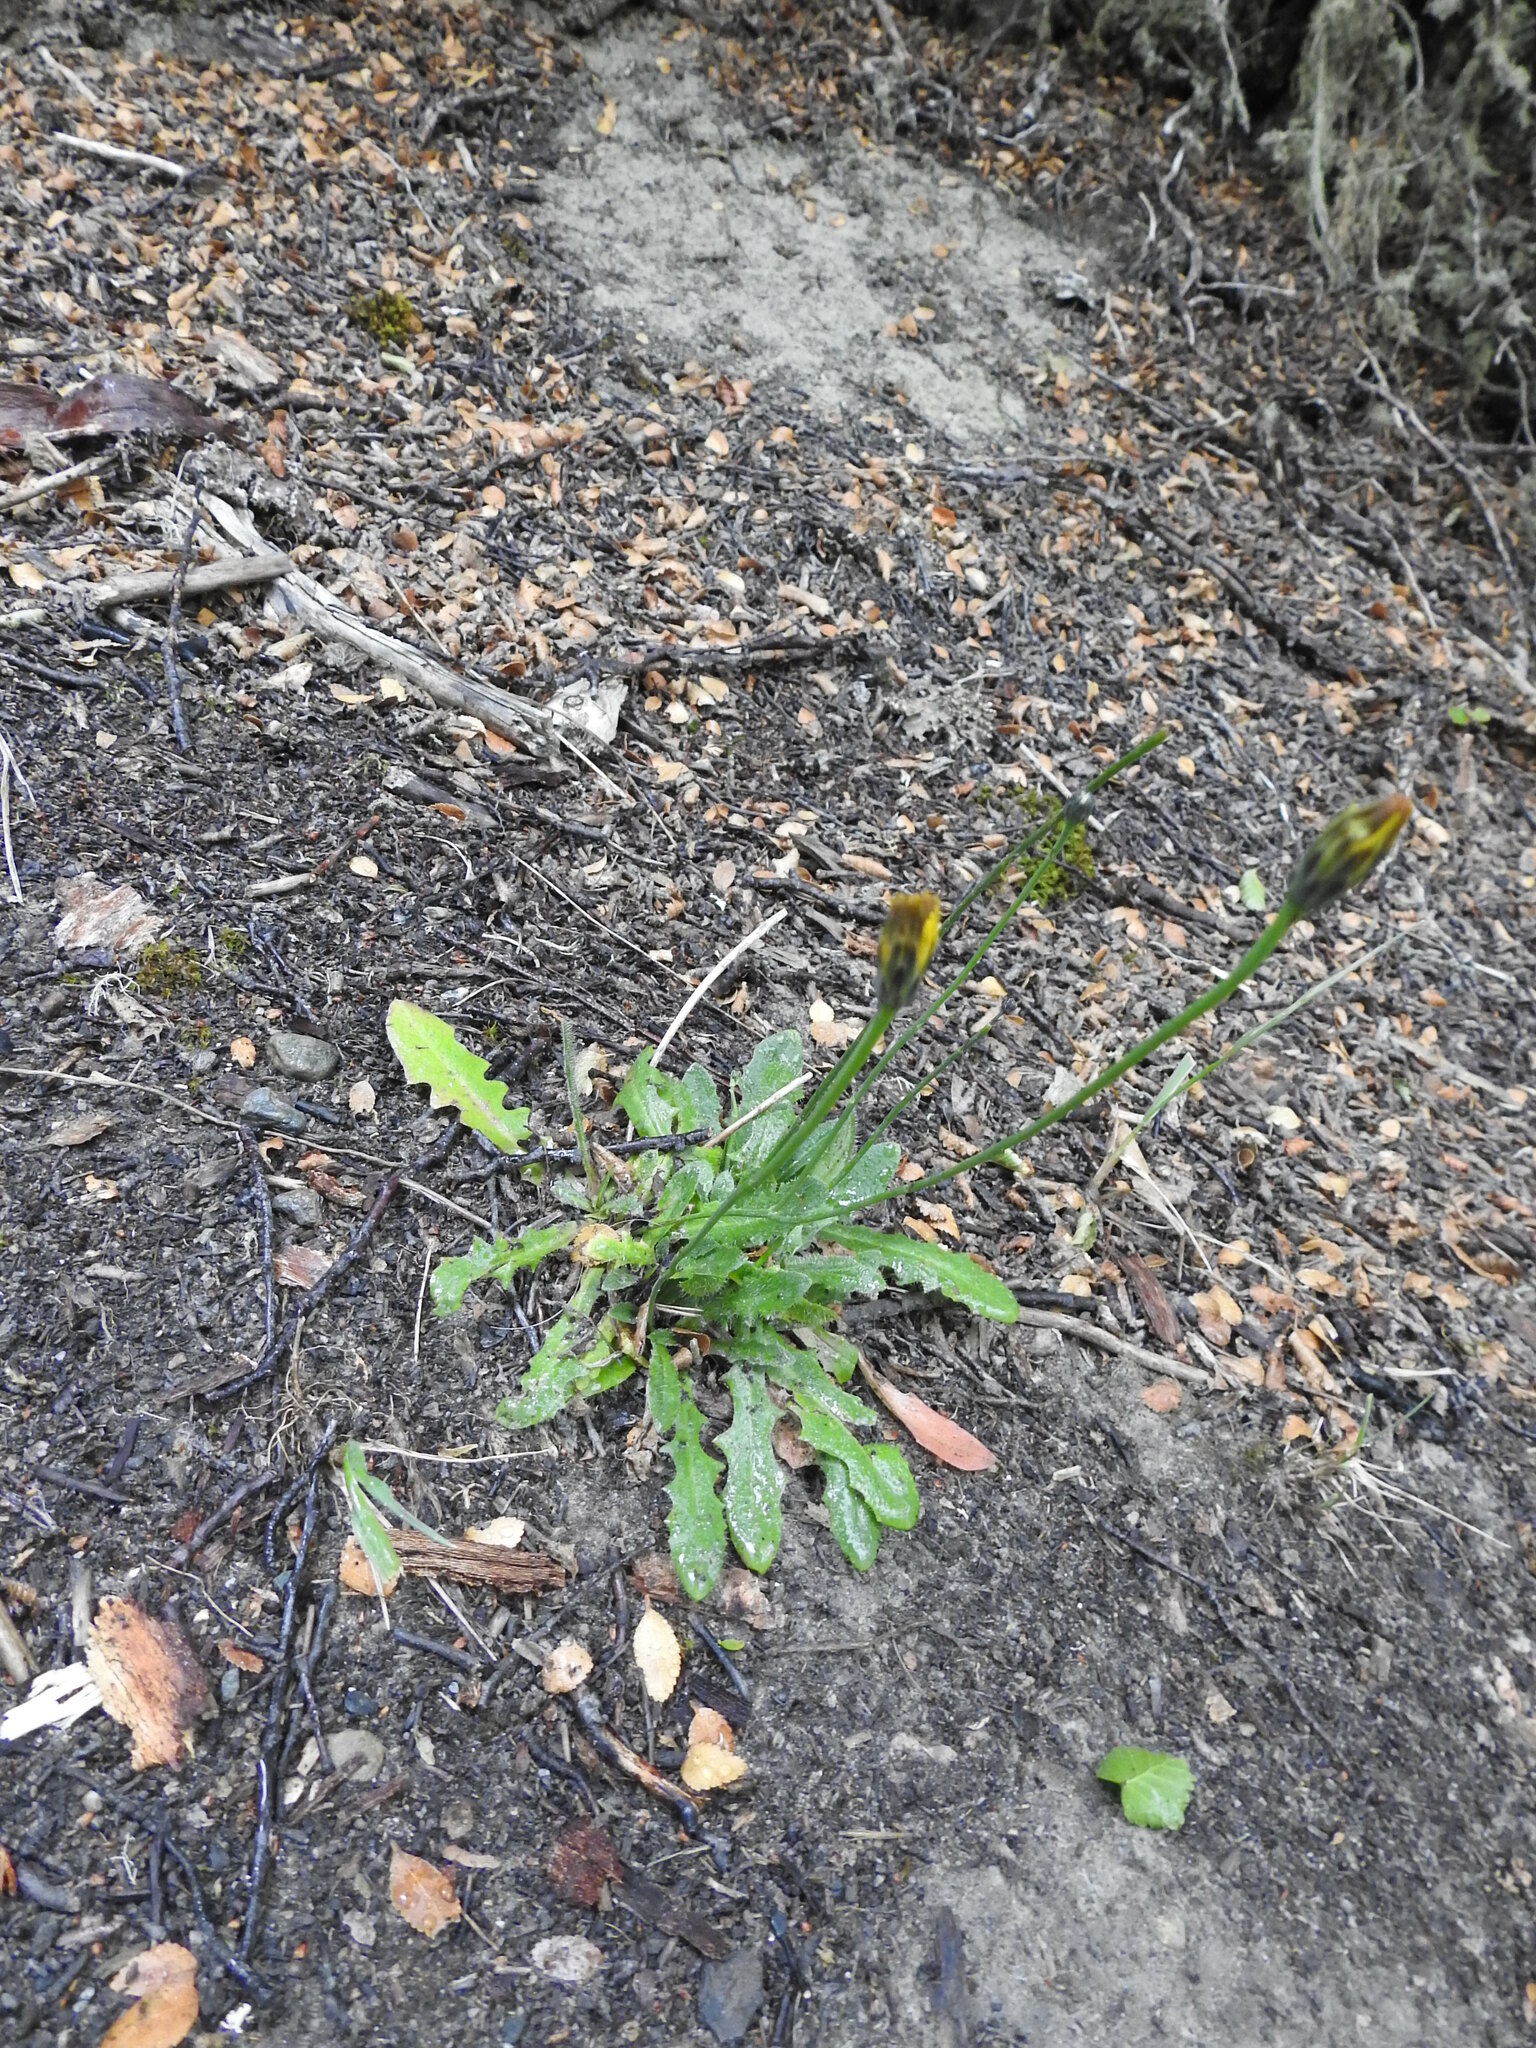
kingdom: Plantae
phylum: Tracheophyta
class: Magnoliopsida
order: Asterales
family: Asteraceae
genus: Hypochaeris
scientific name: Hypochaeris radicata
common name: Flatweed
